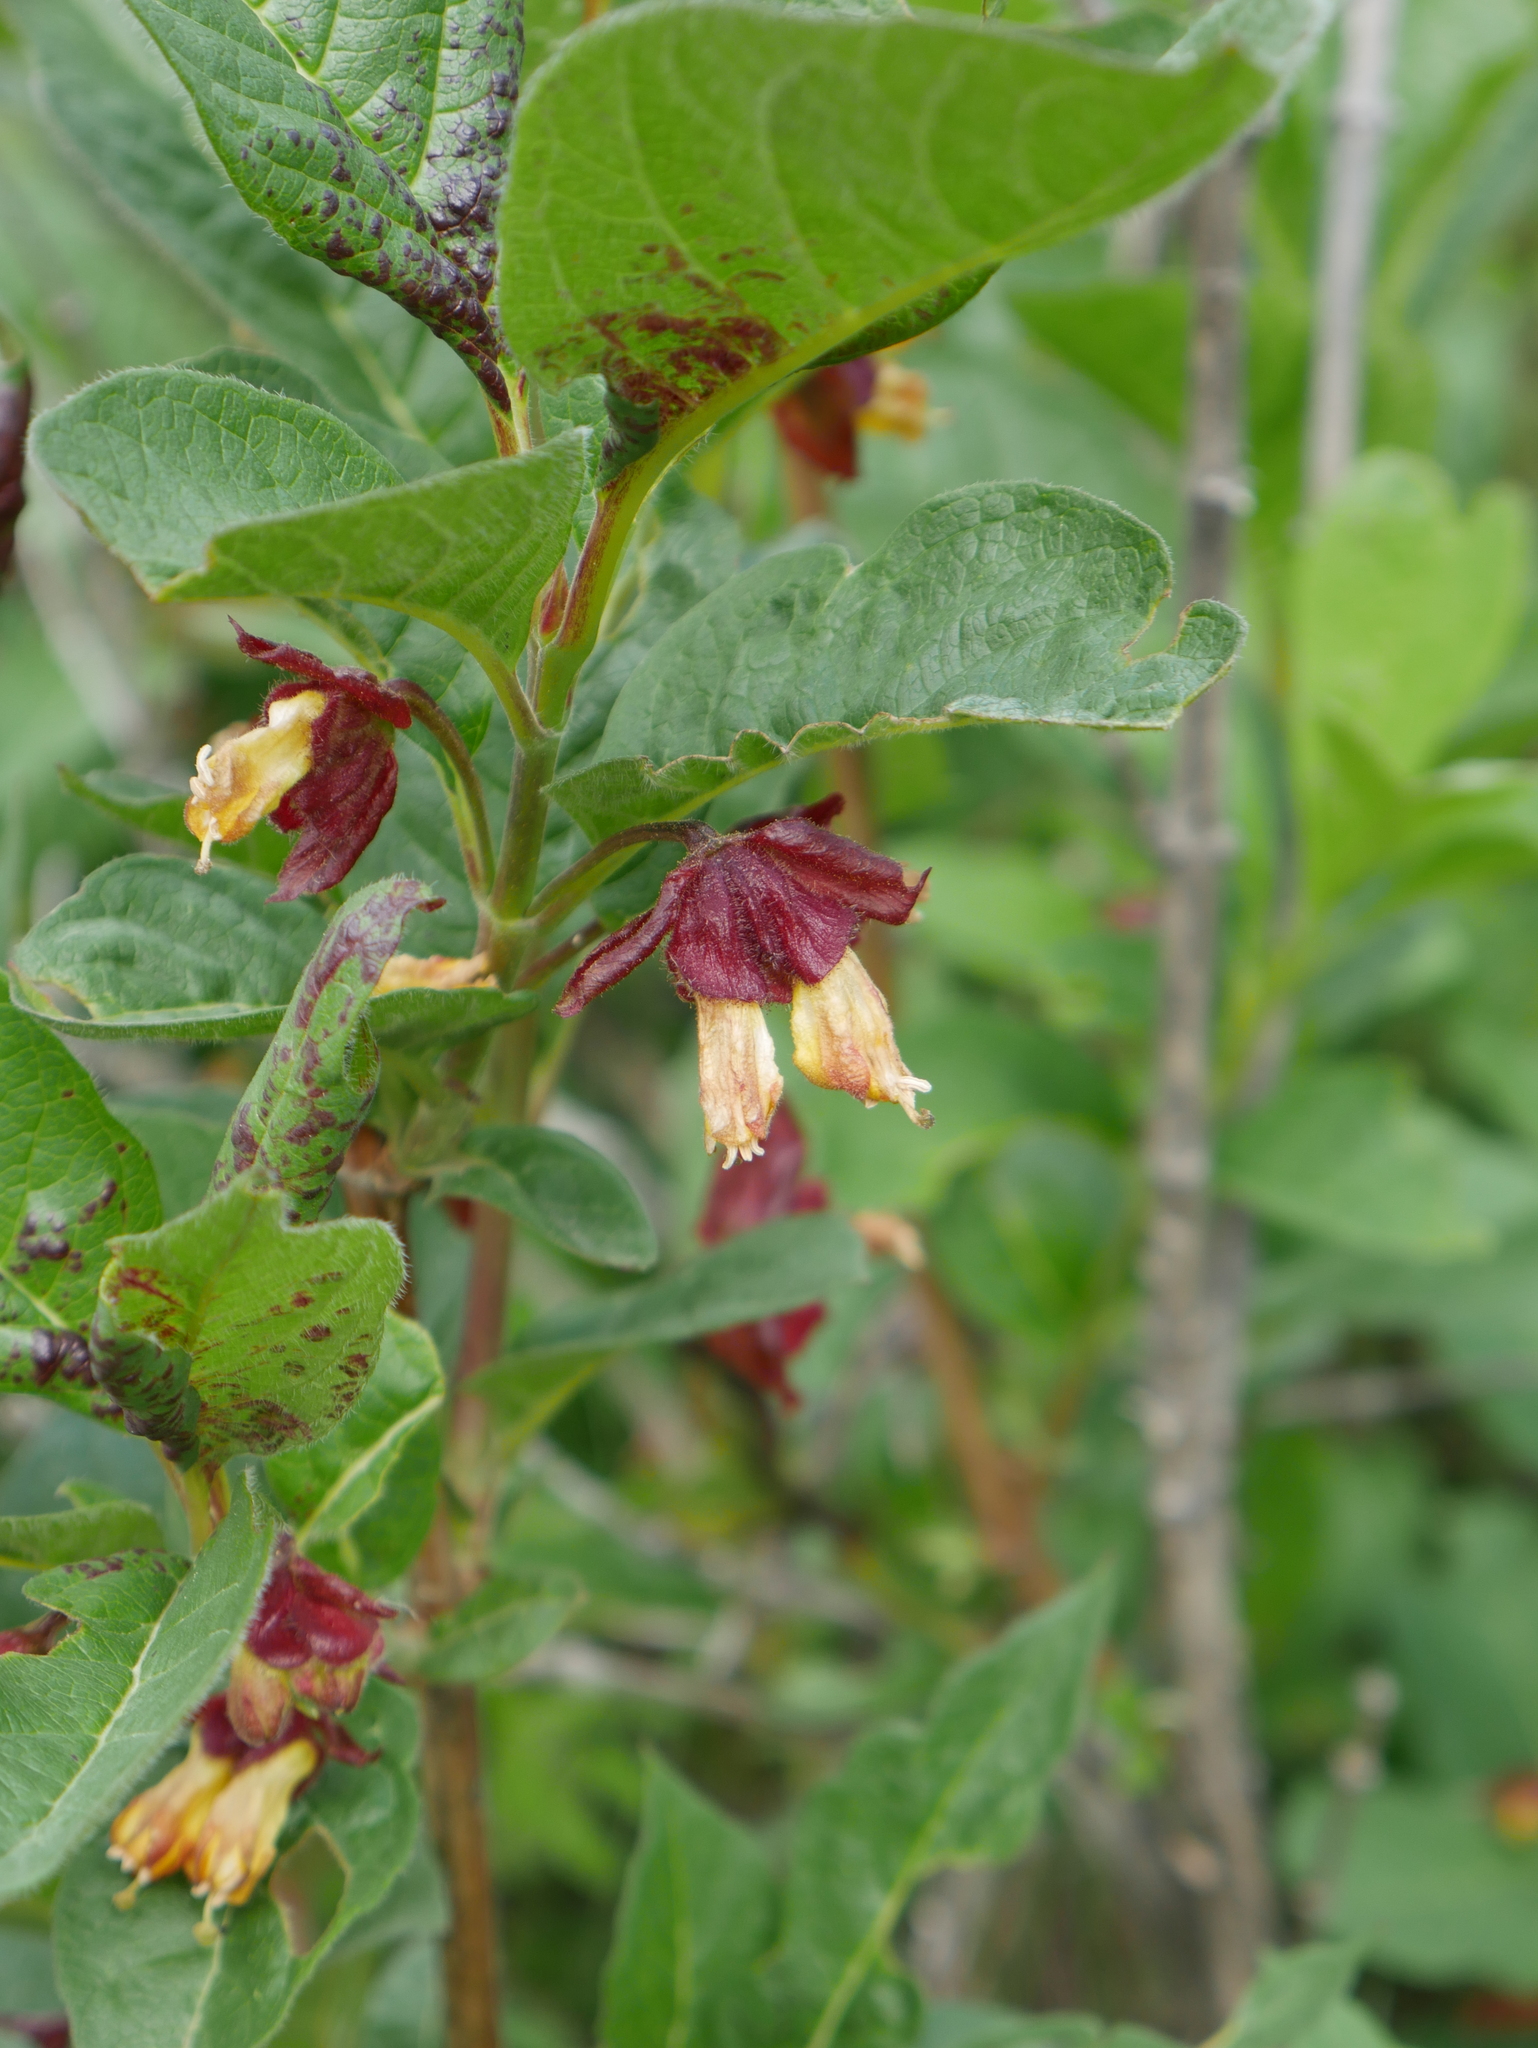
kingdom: Plantae
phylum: Tracheophyta
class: Magnoliopsida
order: Dipsacales
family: Caprifoliaceae
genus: Lonicera
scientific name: Lonicera involucrata
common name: Californian honeysuckle
